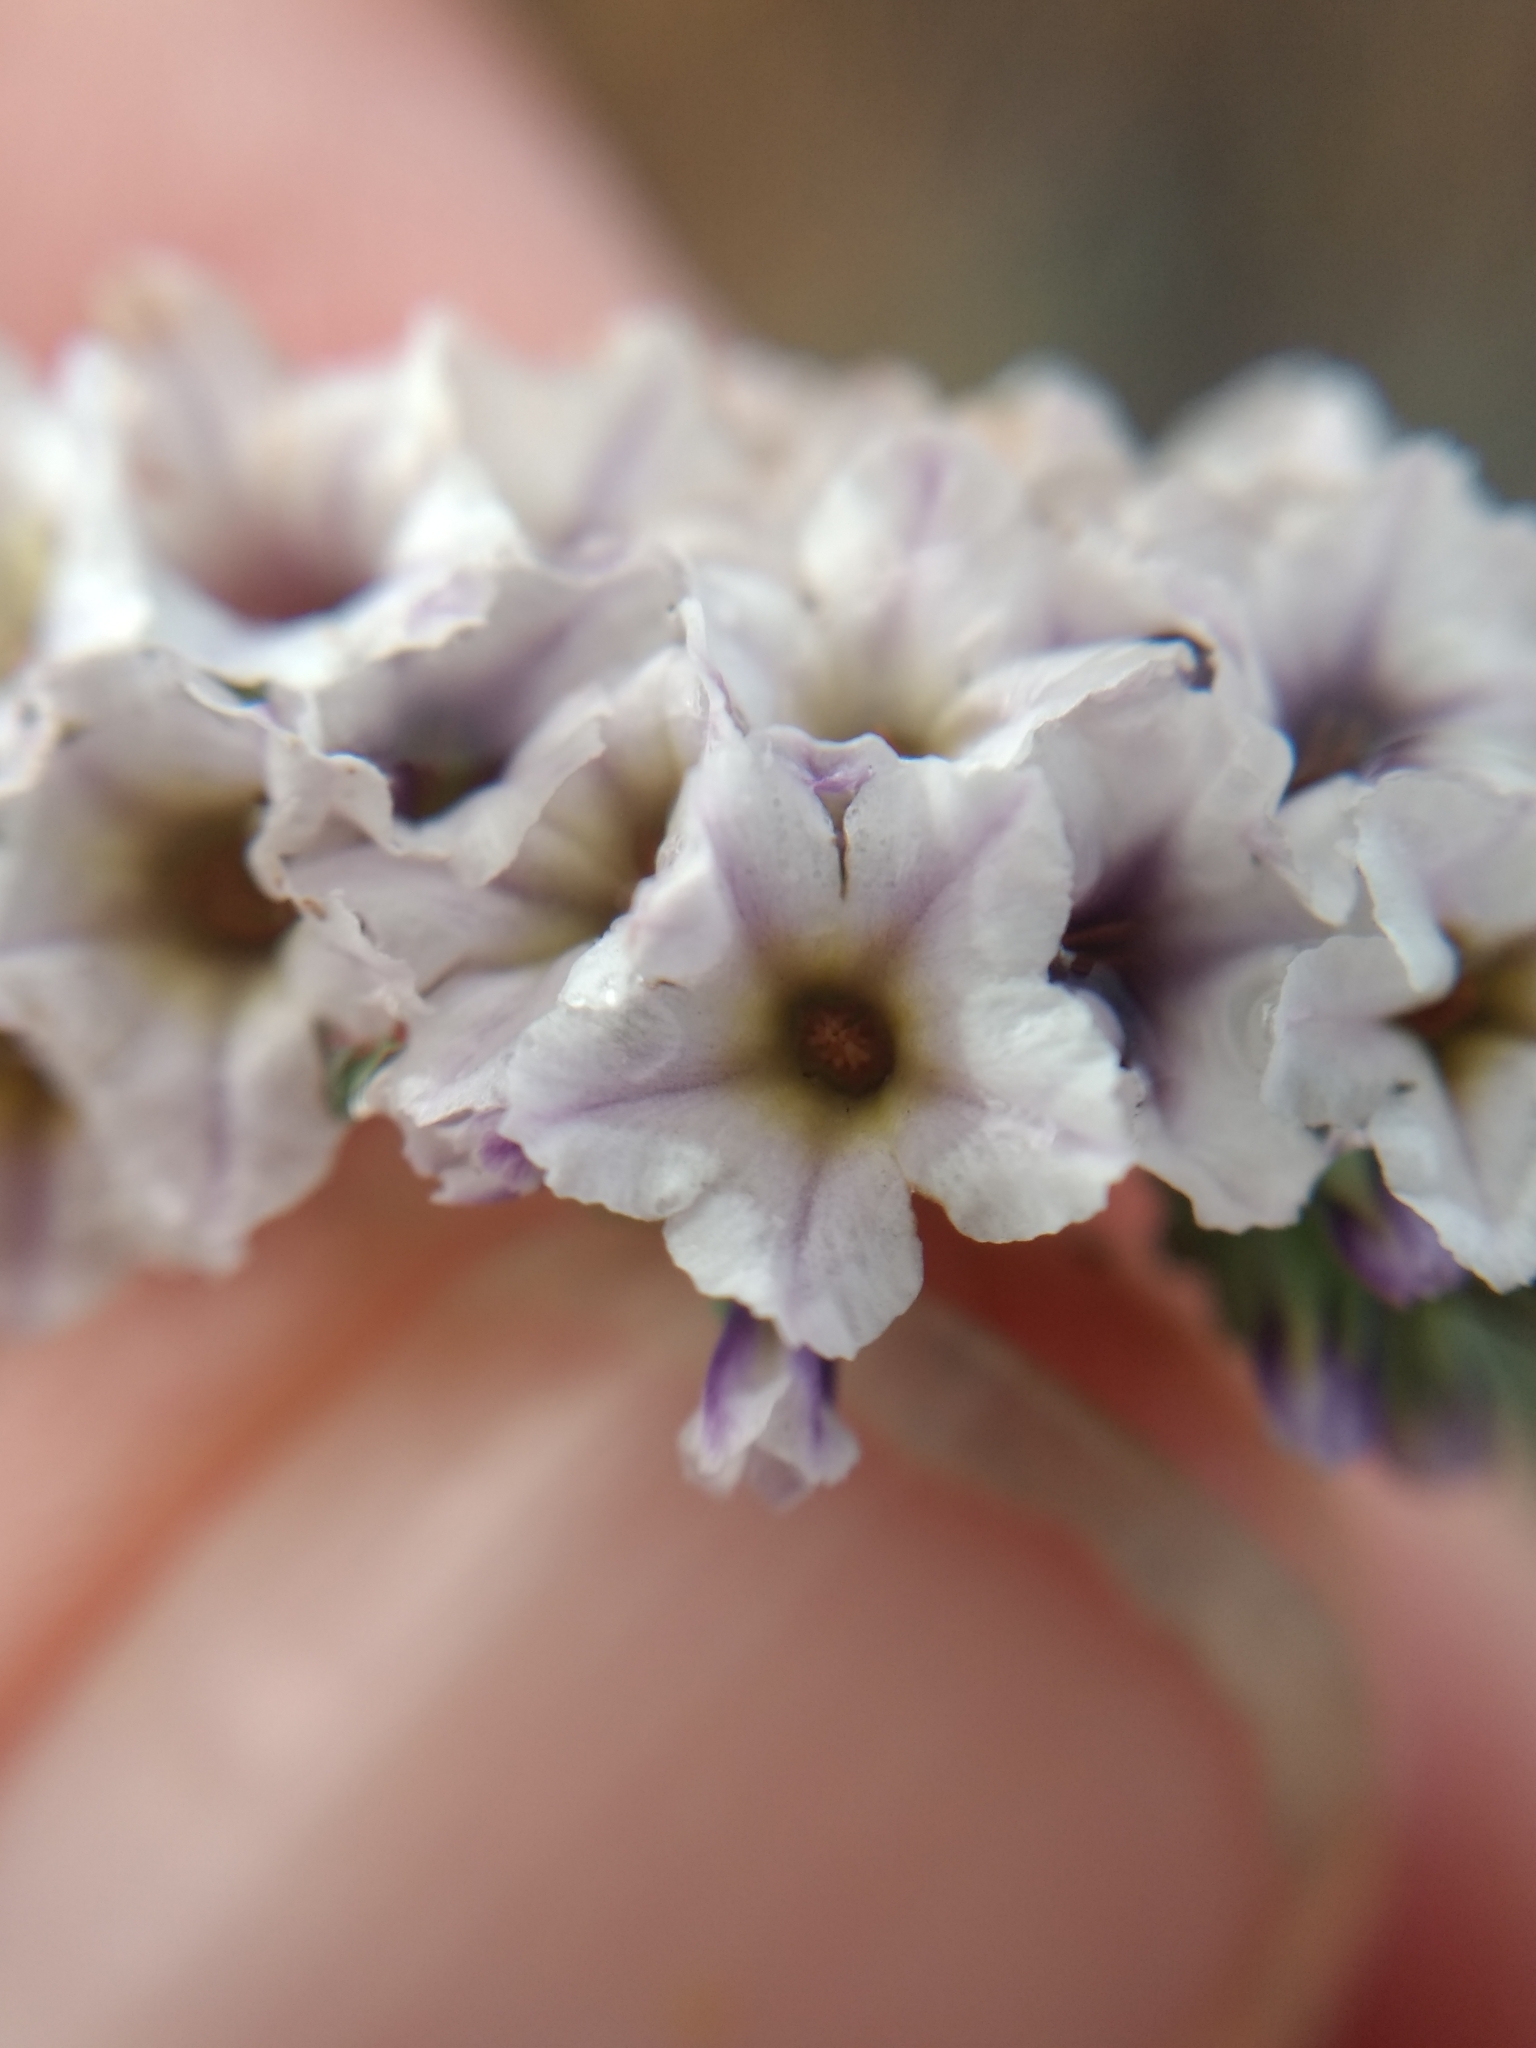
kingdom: Plantae
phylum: Tracheophyta
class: Magnoliopsida
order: Boraginales
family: Heliotropiaceae
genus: Heliotropium
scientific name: Heliotropium curassavicum
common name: Seaside heliotrope
